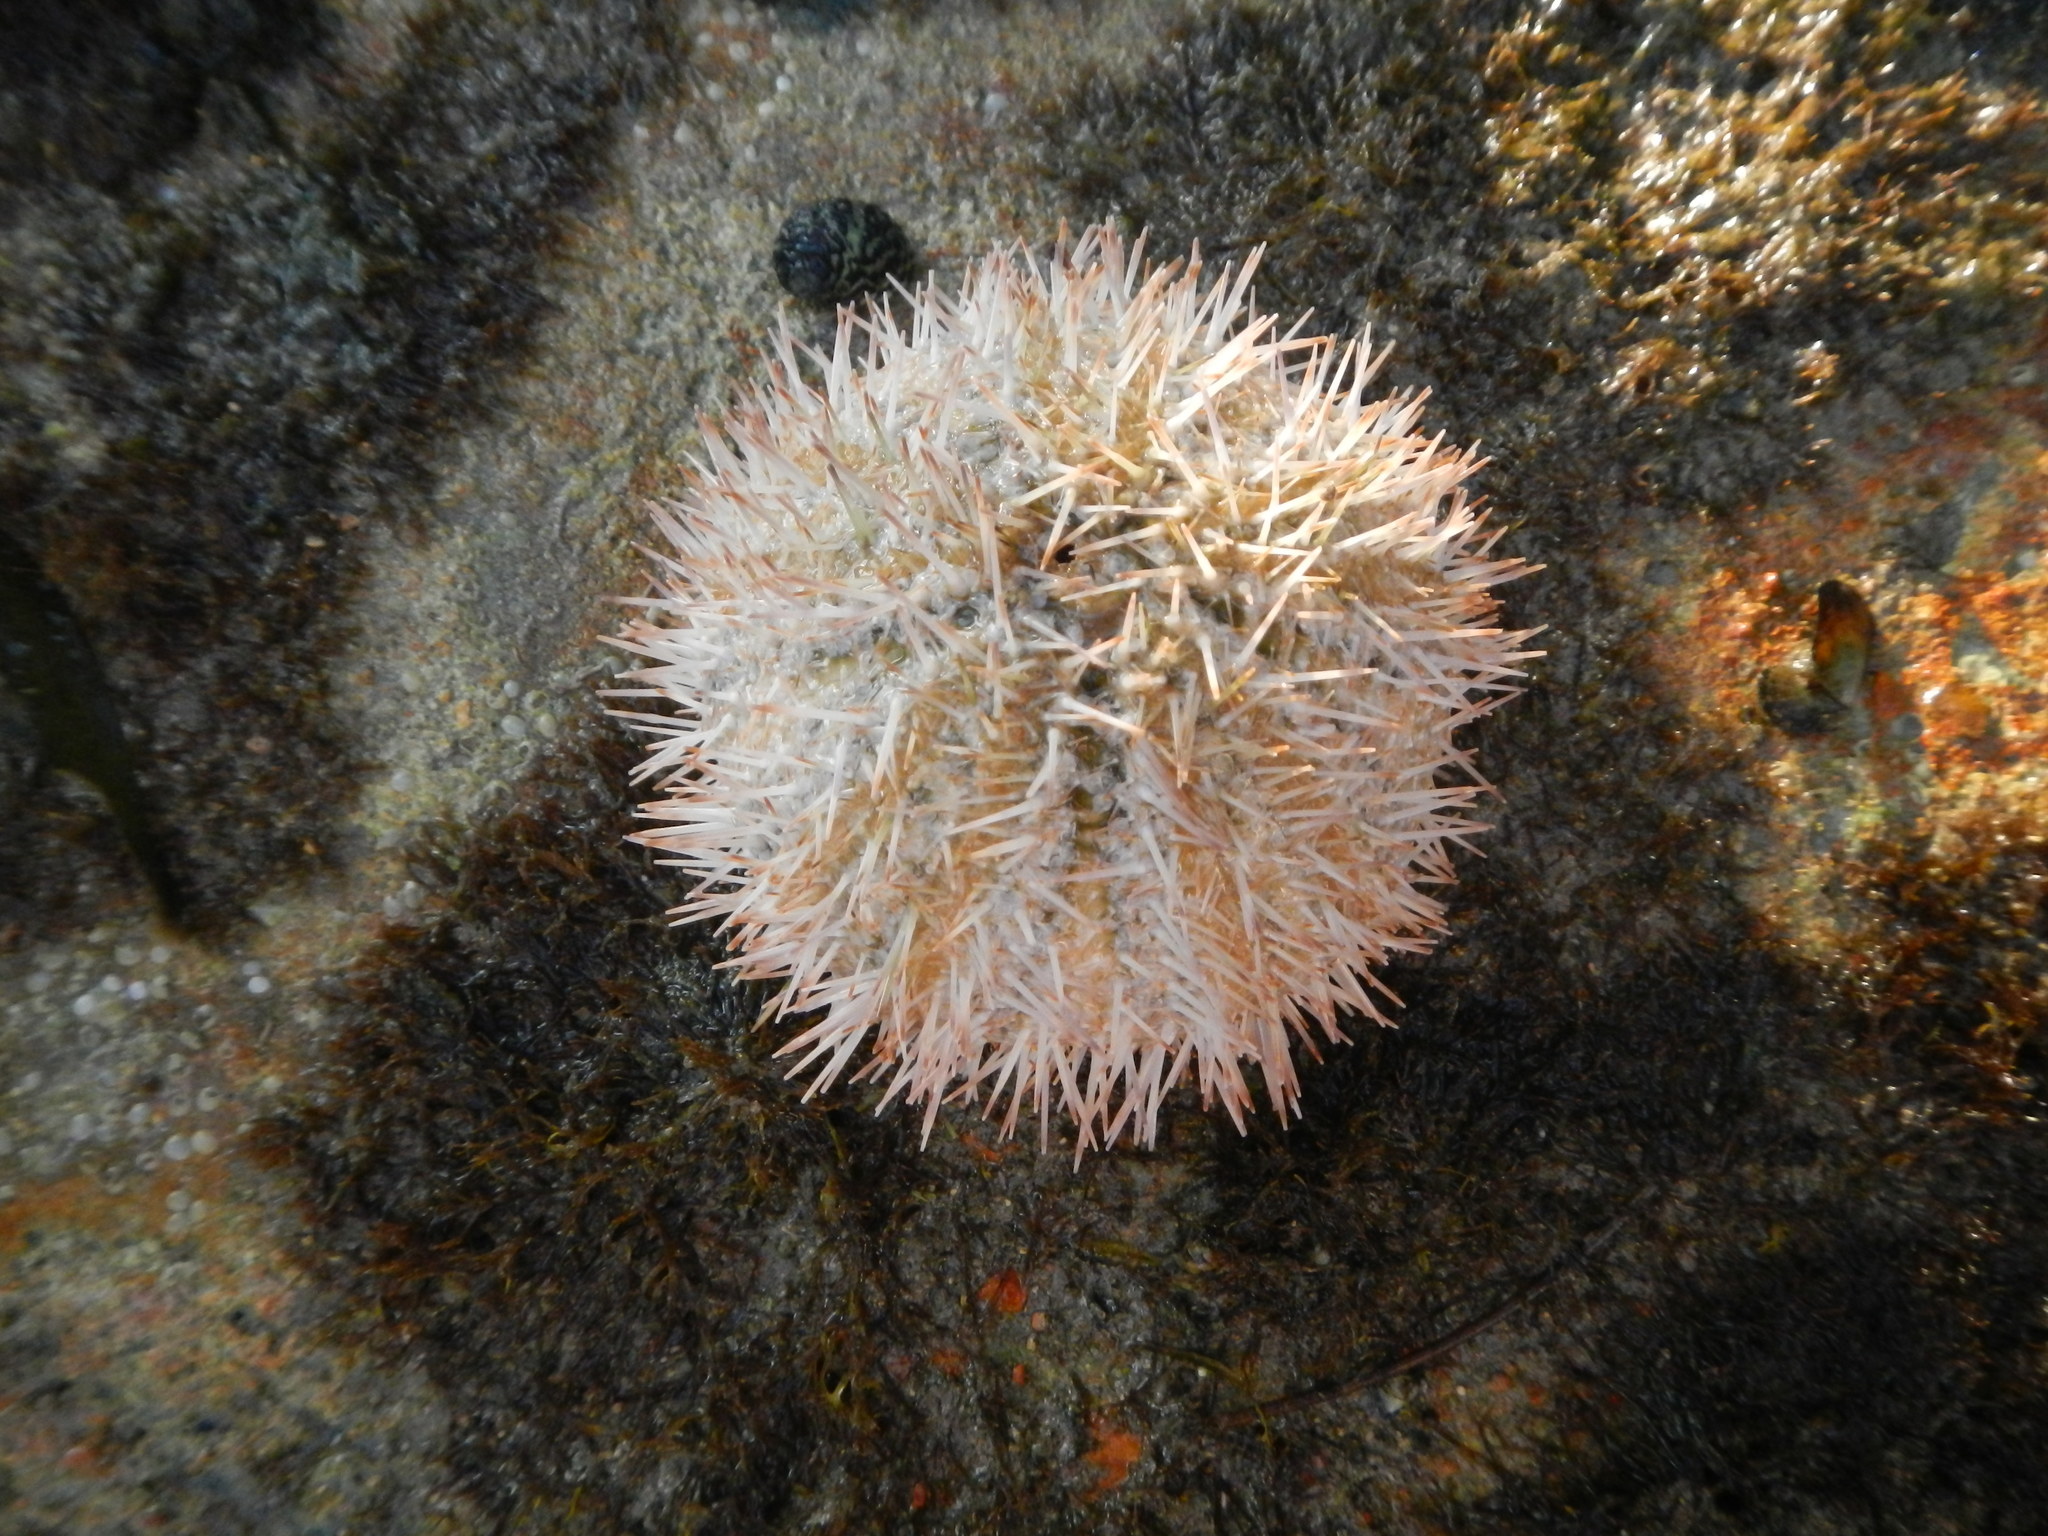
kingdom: Animalia
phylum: Echinodermata
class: Echinoidea
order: Camarodonta
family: Toxopneustidae
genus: Lytechinus
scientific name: Lytechinus variegatus
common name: Variegated urchin
